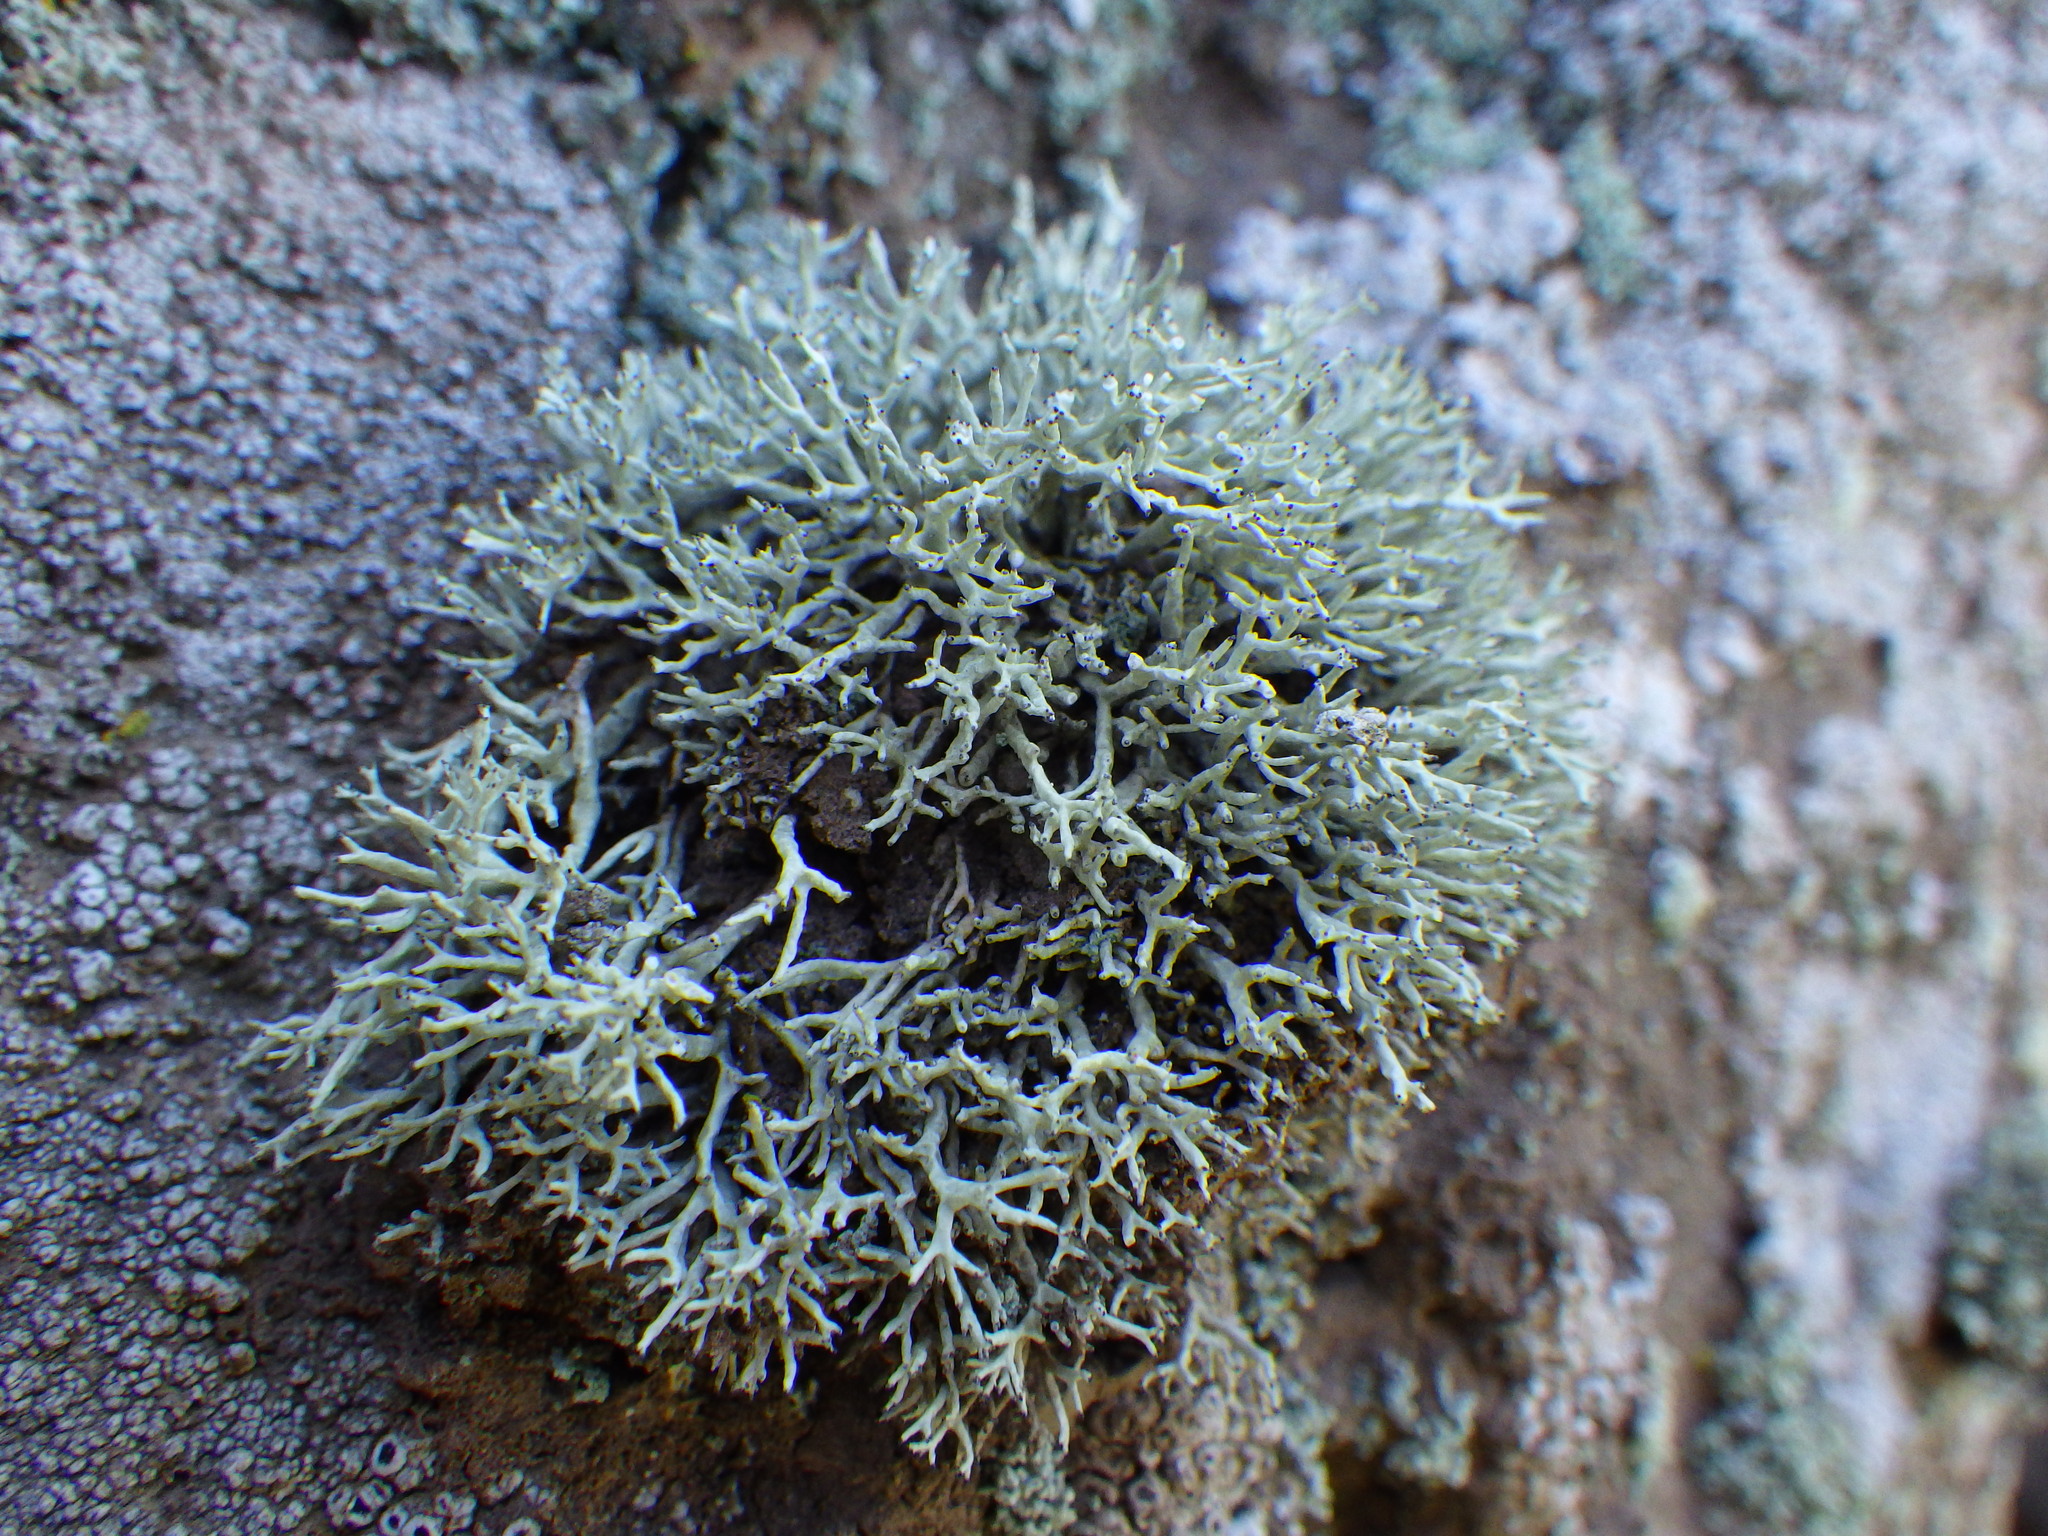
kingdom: Fungi
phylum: Ascomycota
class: Lecanoromycetes
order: Lecanorales
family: Ramalinaceae
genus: Niebla
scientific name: Niebla ceruchoides
